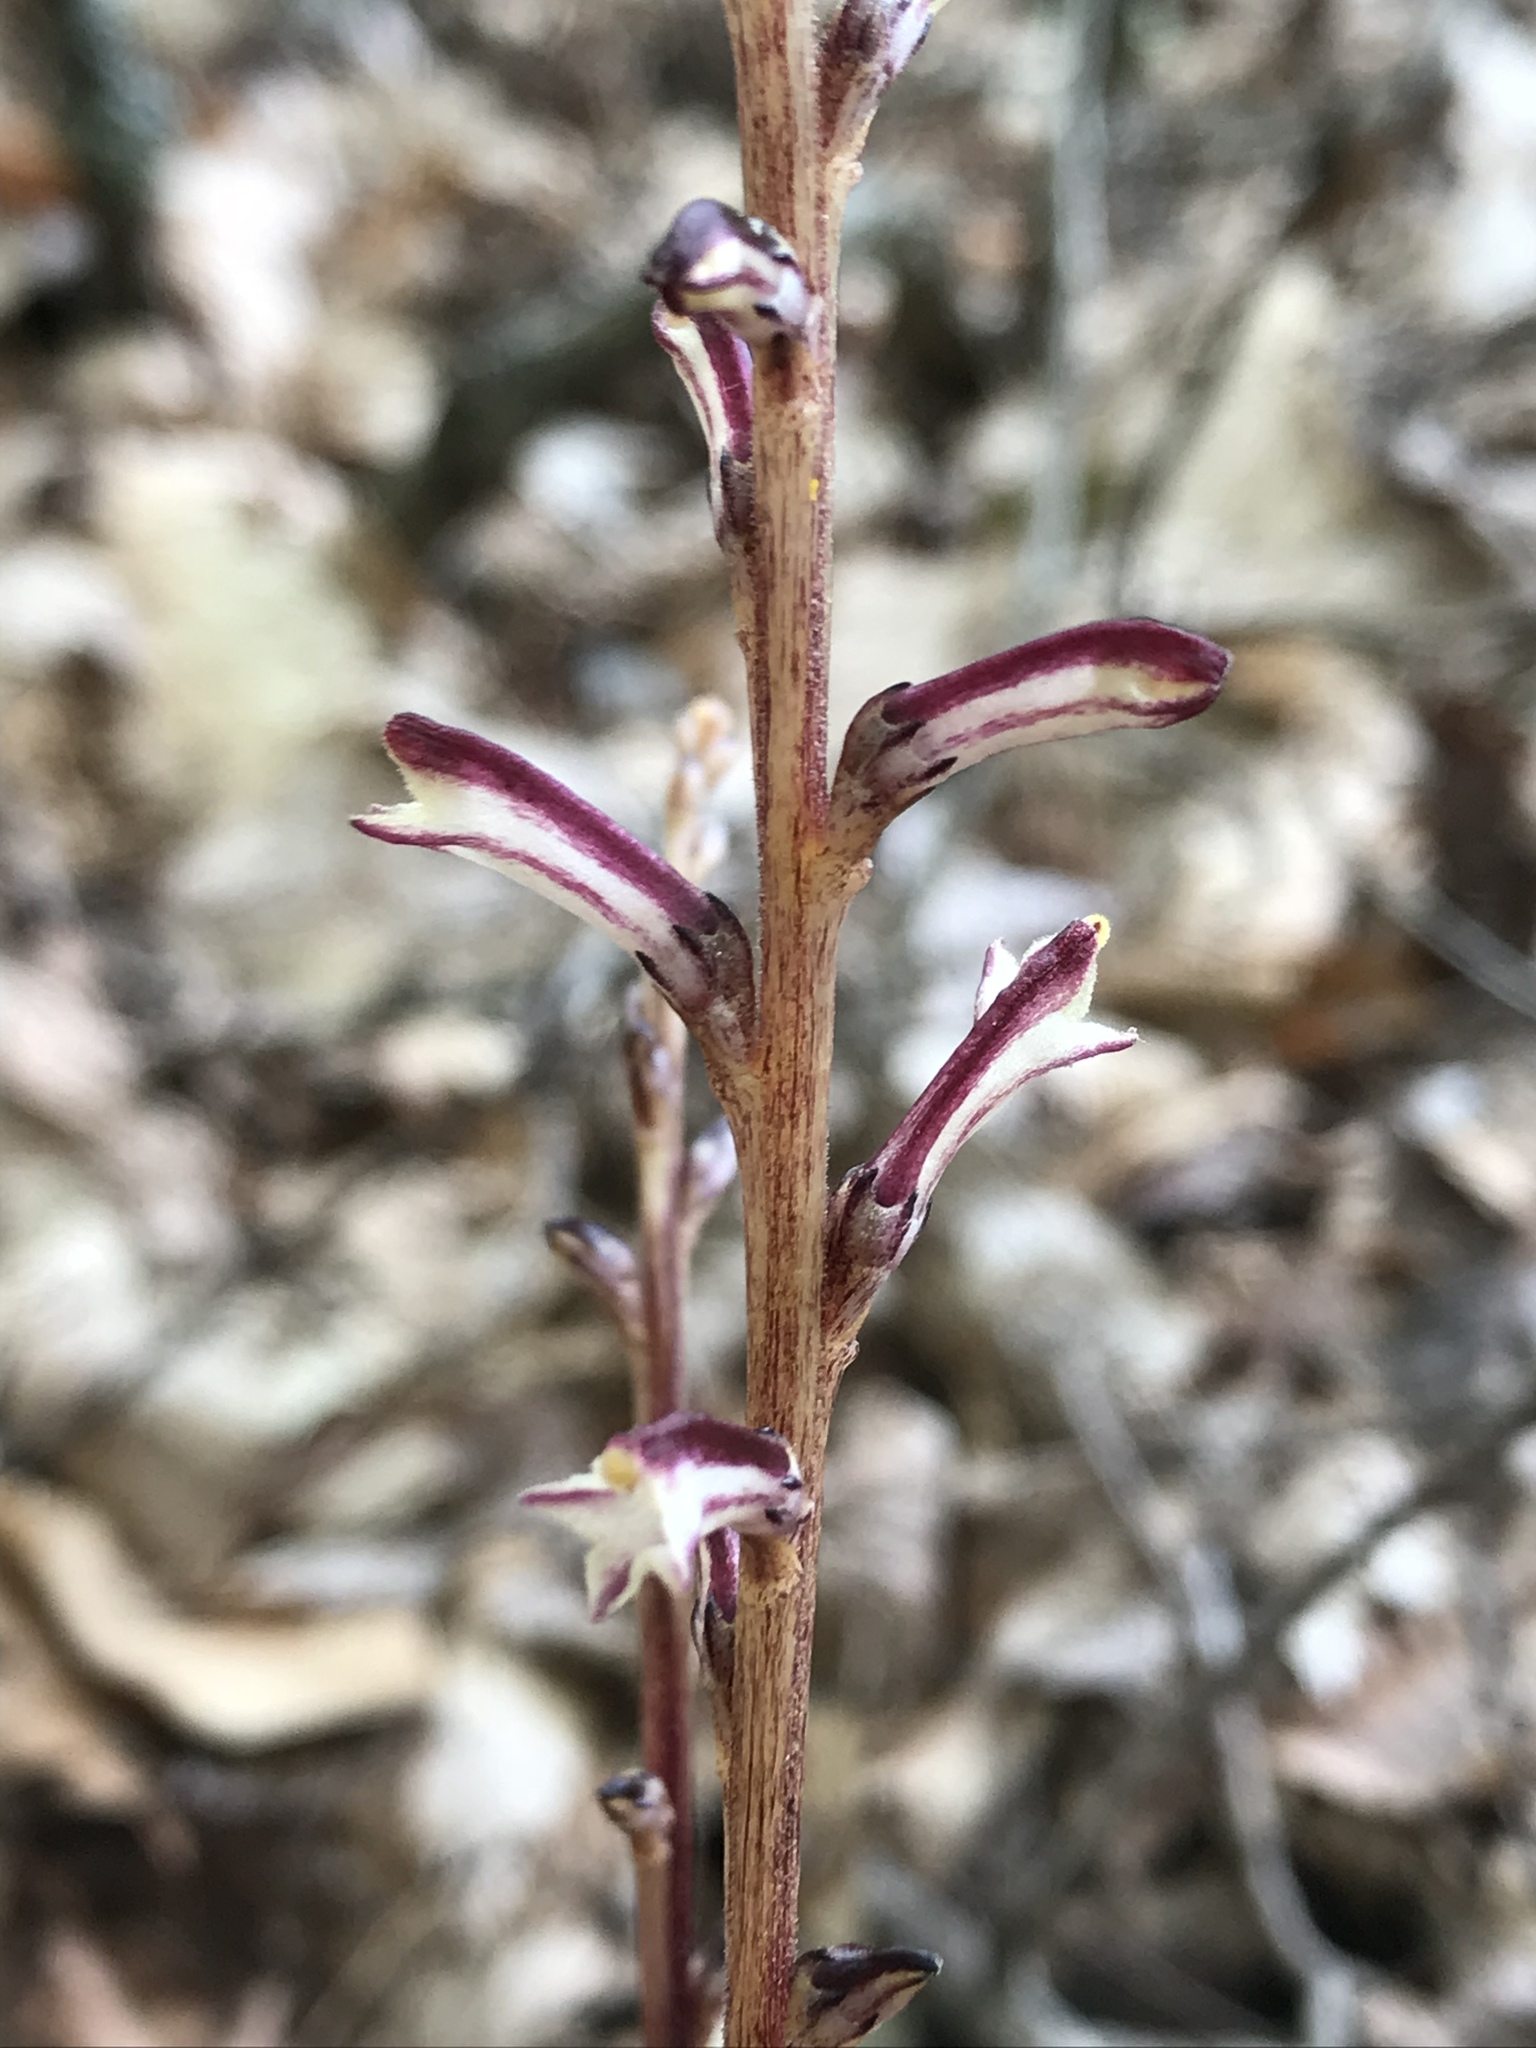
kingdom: Plantae
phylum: Tracheophyta
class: Magnoliopsida
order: Lamiales
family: Orobanchaceae
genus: Epifagus
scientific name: Epifagus virginiana
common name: Beechdrops
